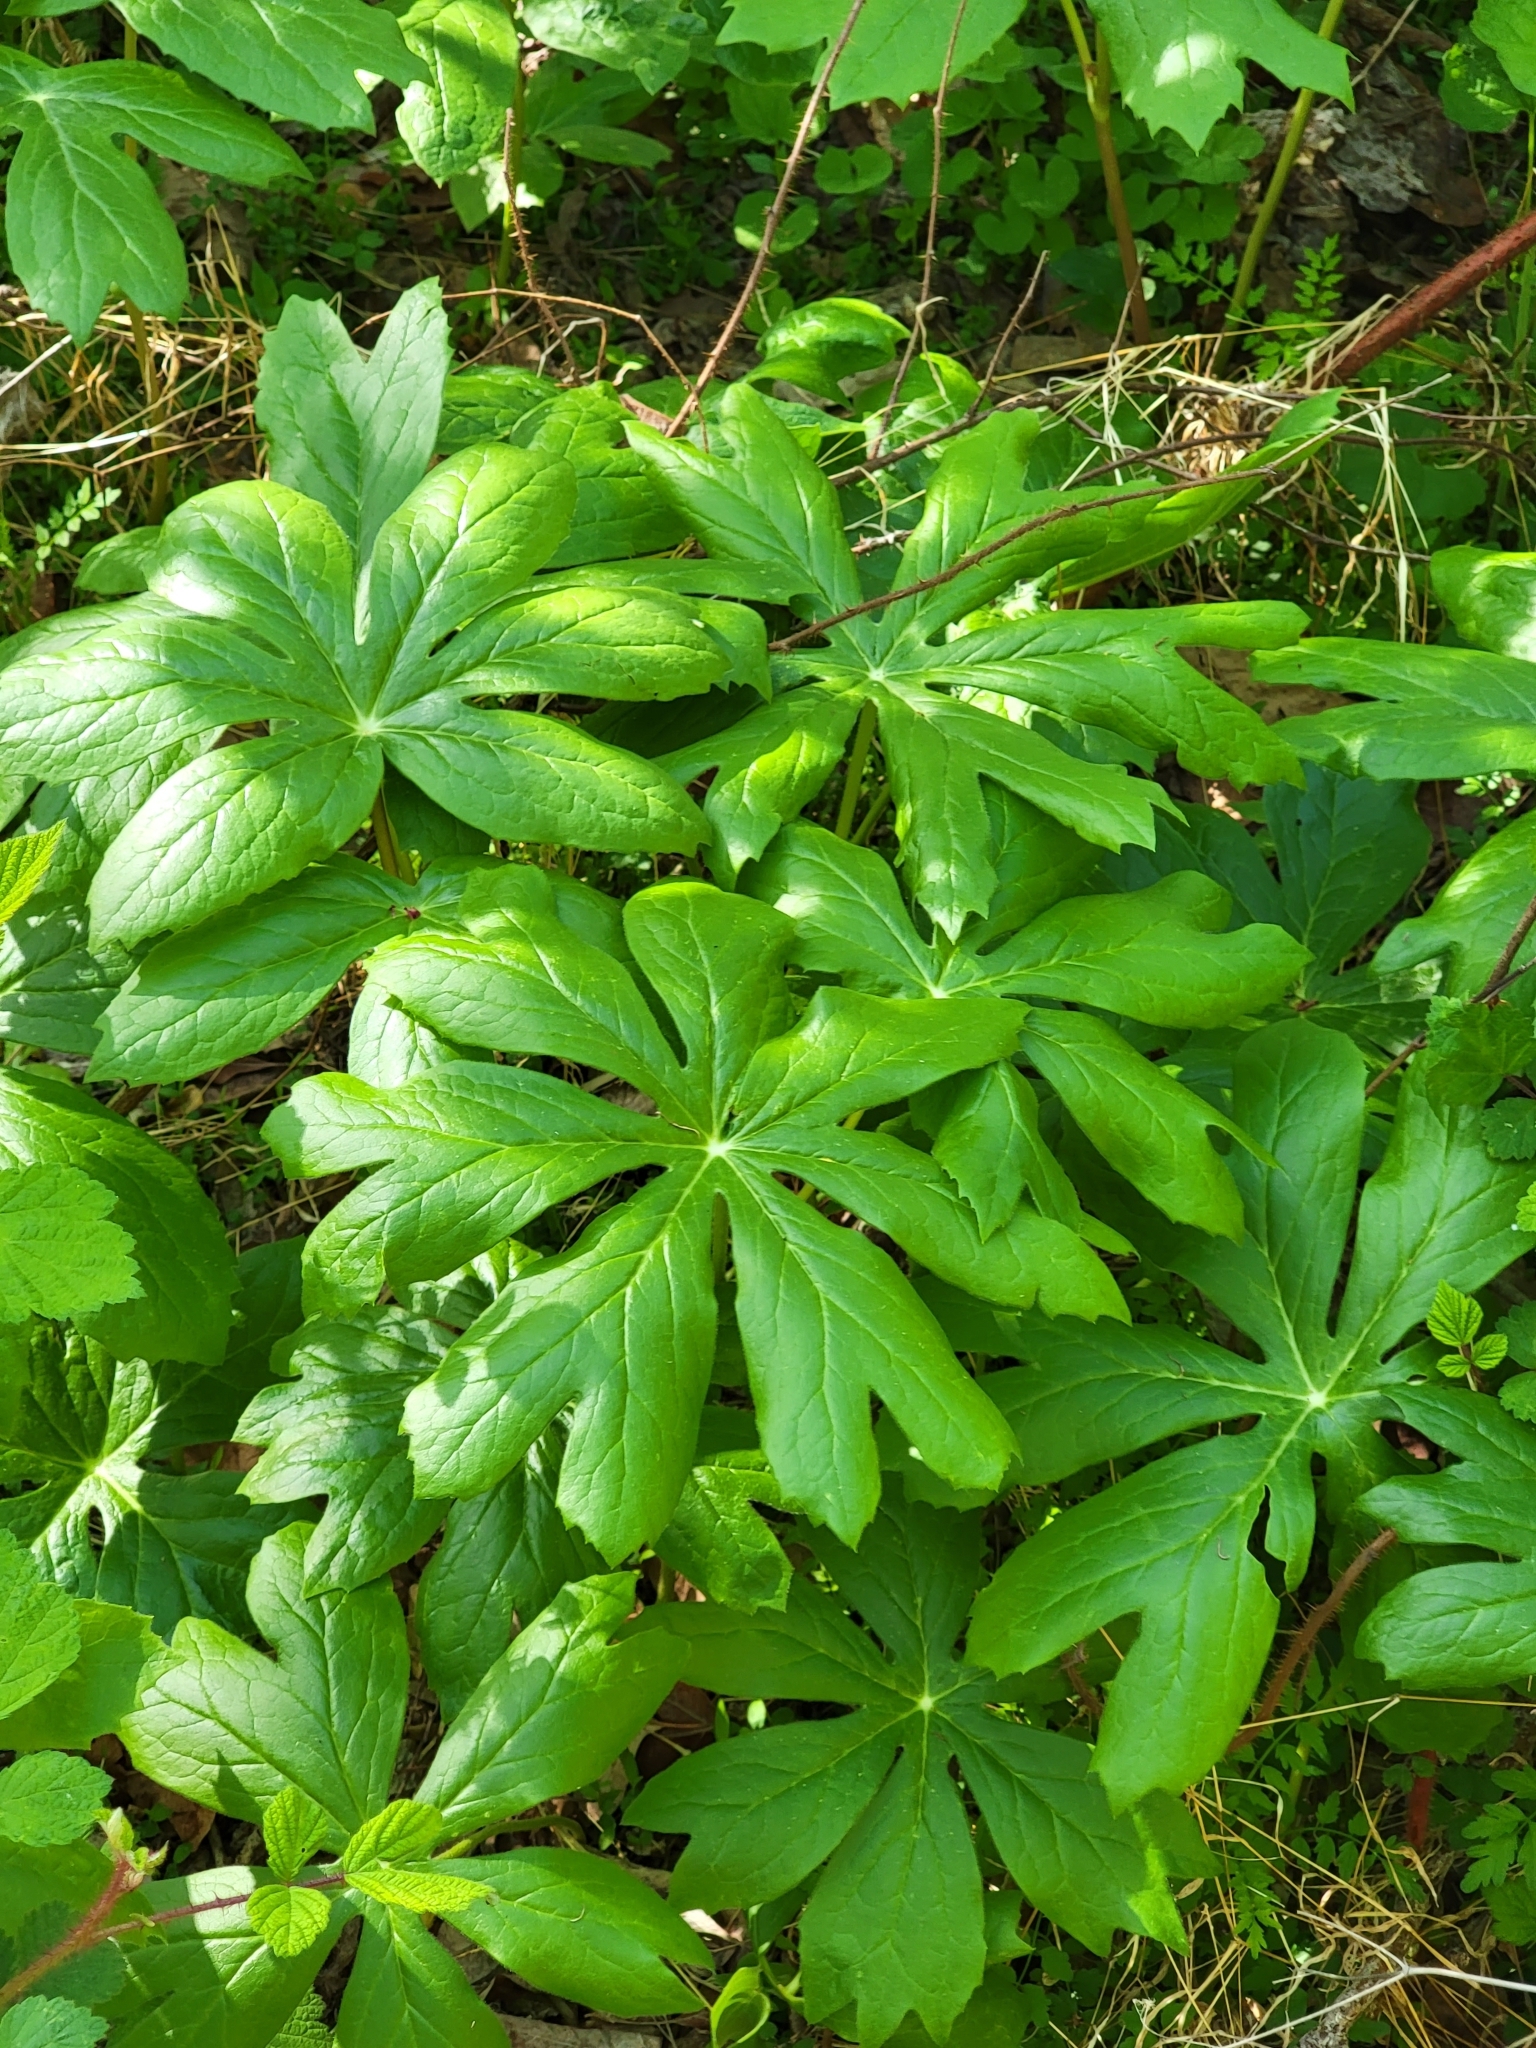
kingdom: Plantae
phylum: Tracheophyta
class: Magnoliopsida
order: Ranunculales
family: Berberidaceae
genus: Podophyllum
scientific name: Podophyllum peltatum
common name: Wild mandrake
